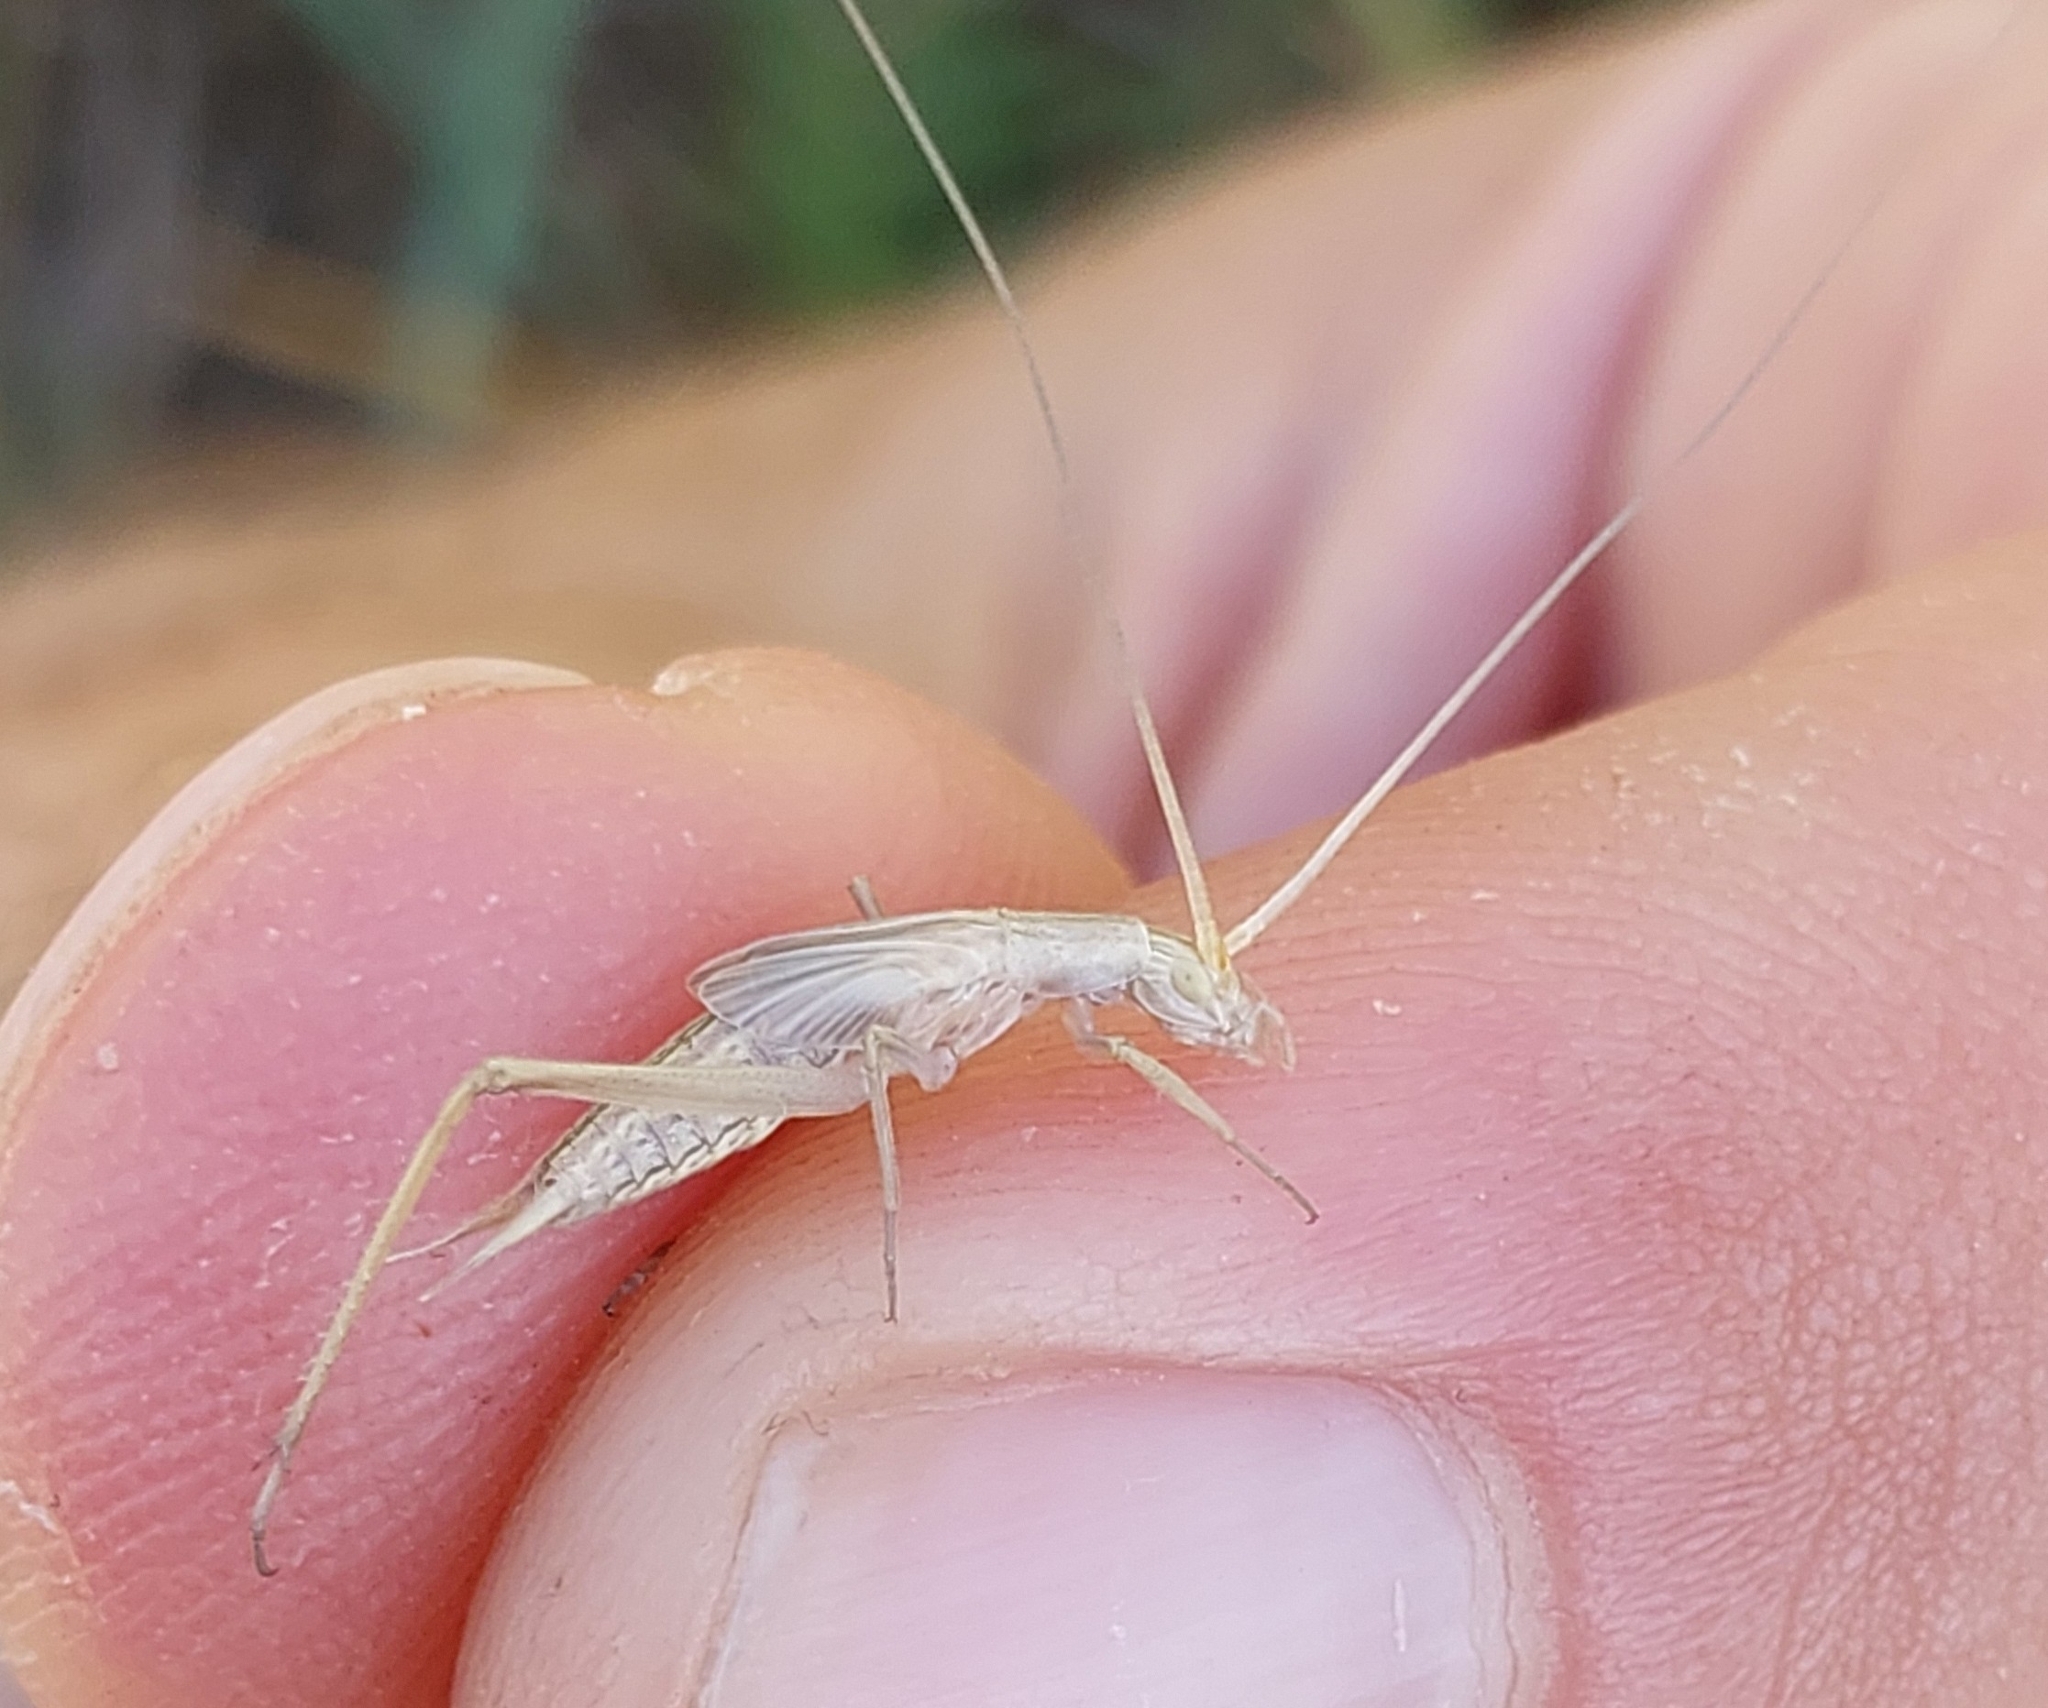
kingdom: Animalia
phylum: Arthropoda
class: Insecta
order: Orthoptera
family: Gryllidae
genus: Oecanthus
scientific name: Oecanthus
